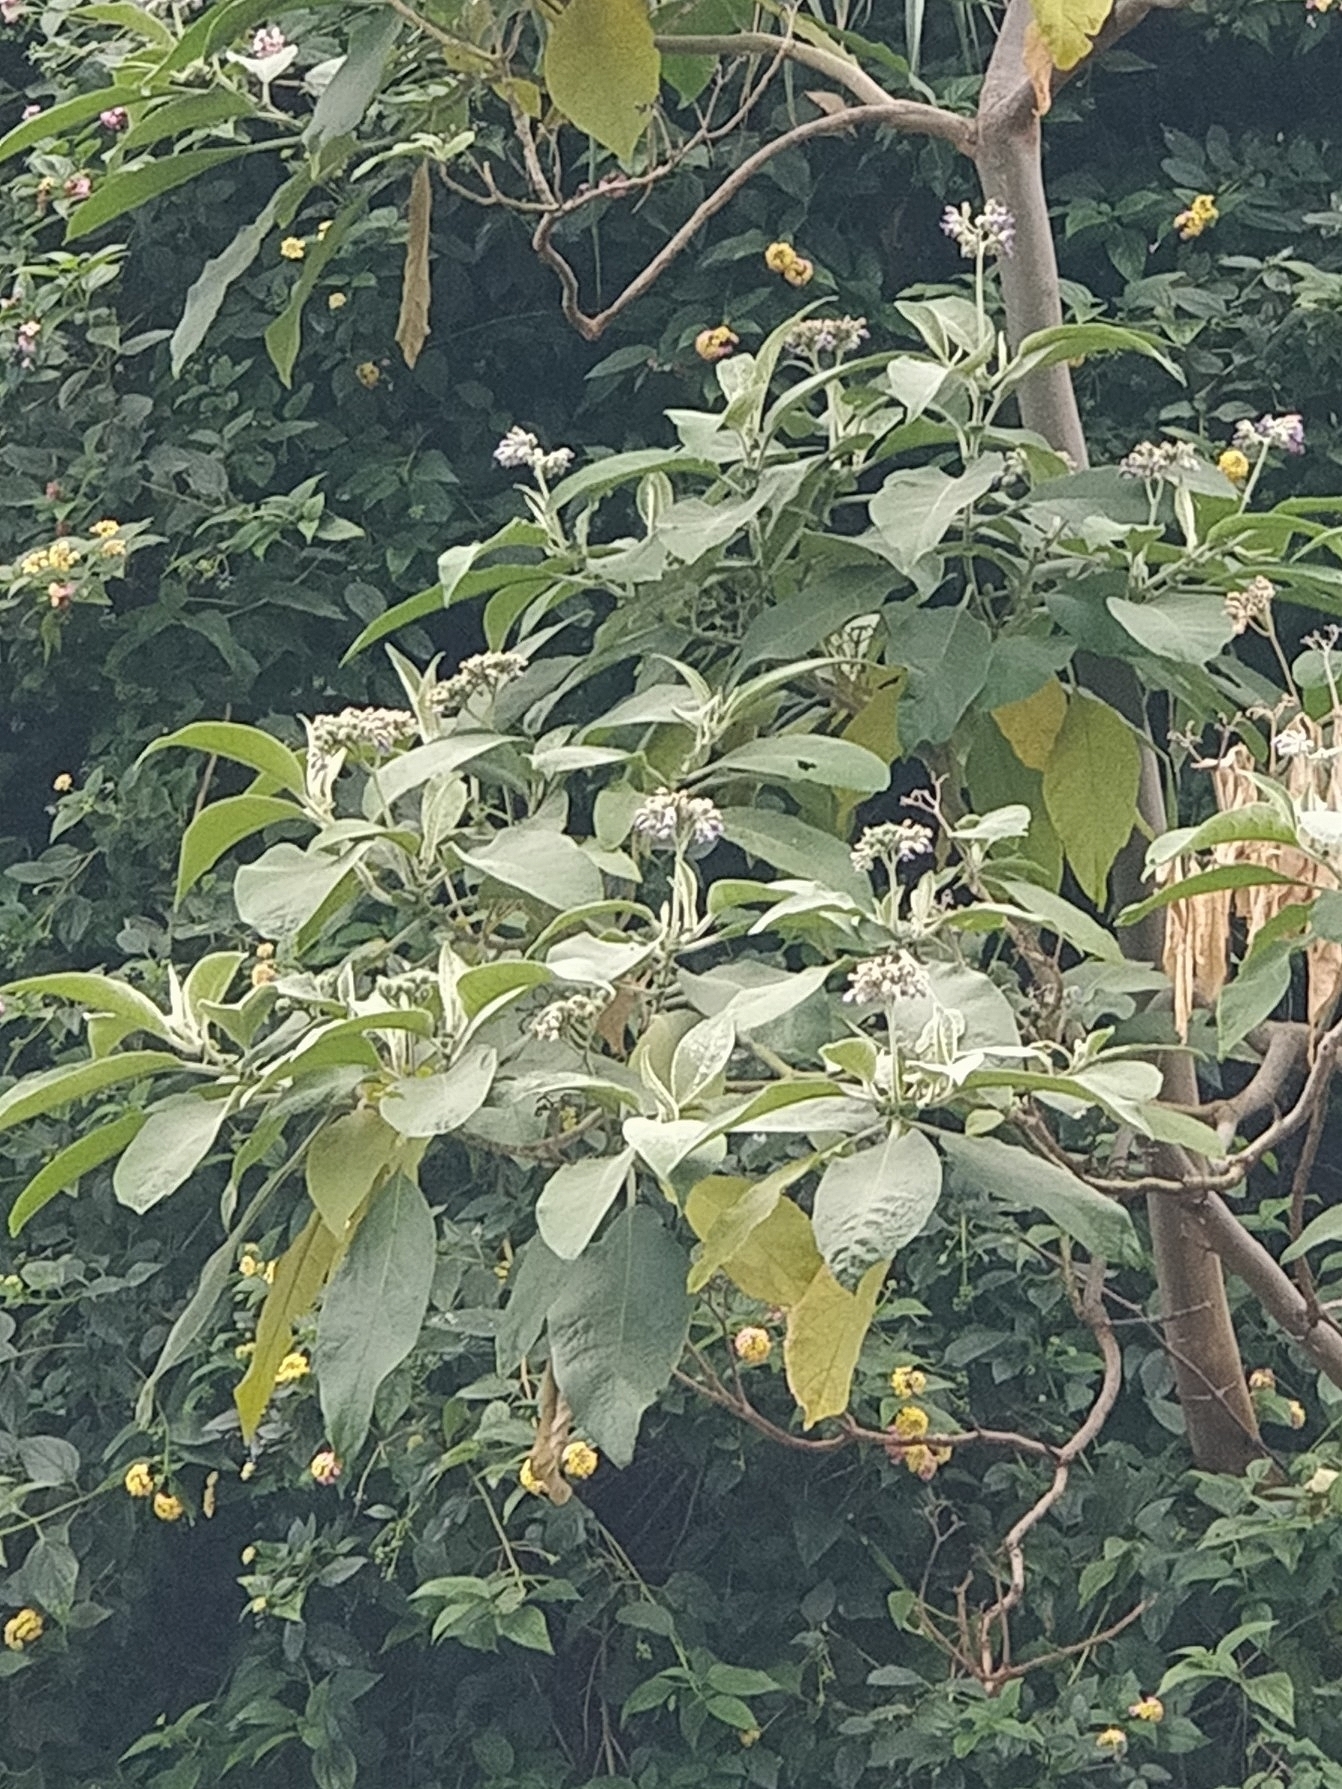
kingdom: Plantae
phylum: Tracheophyta
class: Magnoliopsida
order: Solanales
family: Solanaceae
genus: Solanum
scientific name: Solanum mauritianum
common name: Earleaf nightshade
